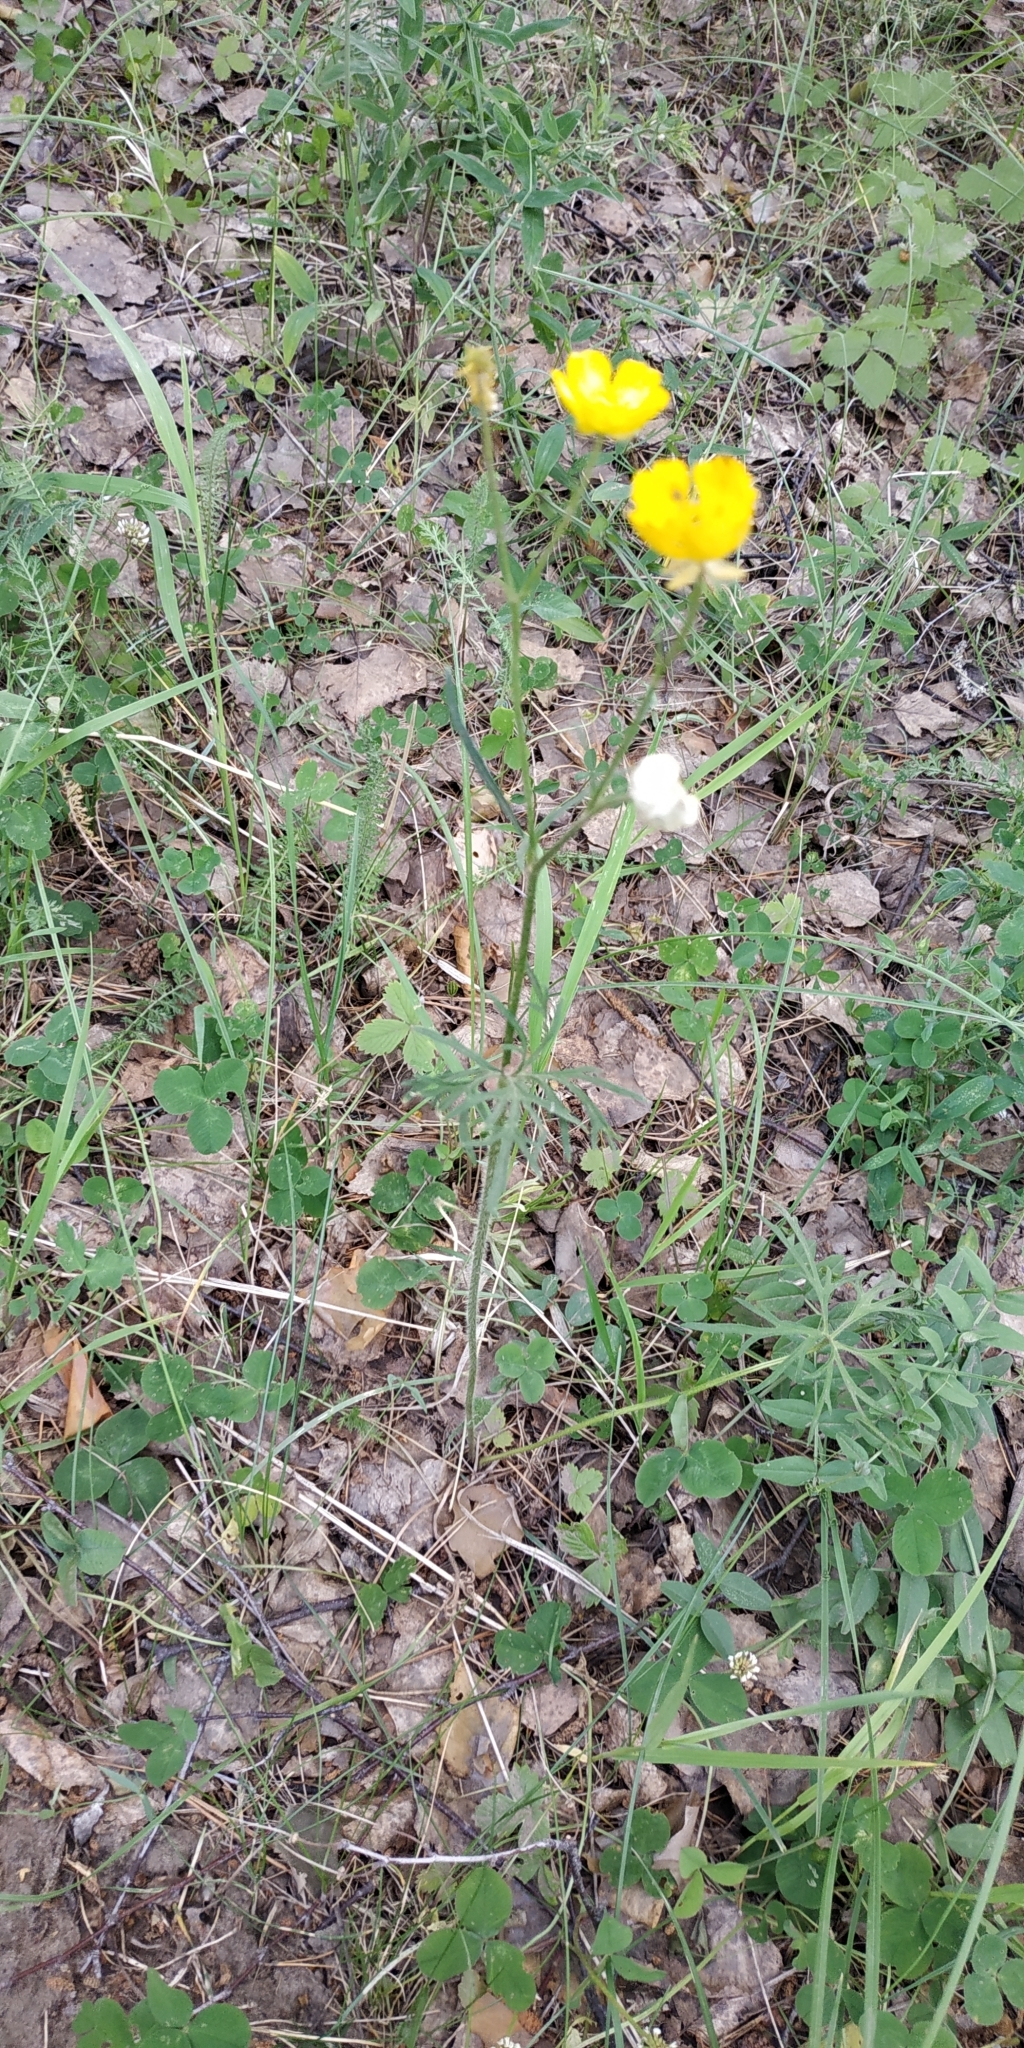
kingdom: Plantae
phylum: Tracheophyta
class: Magnoliopsida
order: Ranunculales
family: Ranunculaceae
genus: Ranunculus
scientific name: Ranunculus polyanthemos
